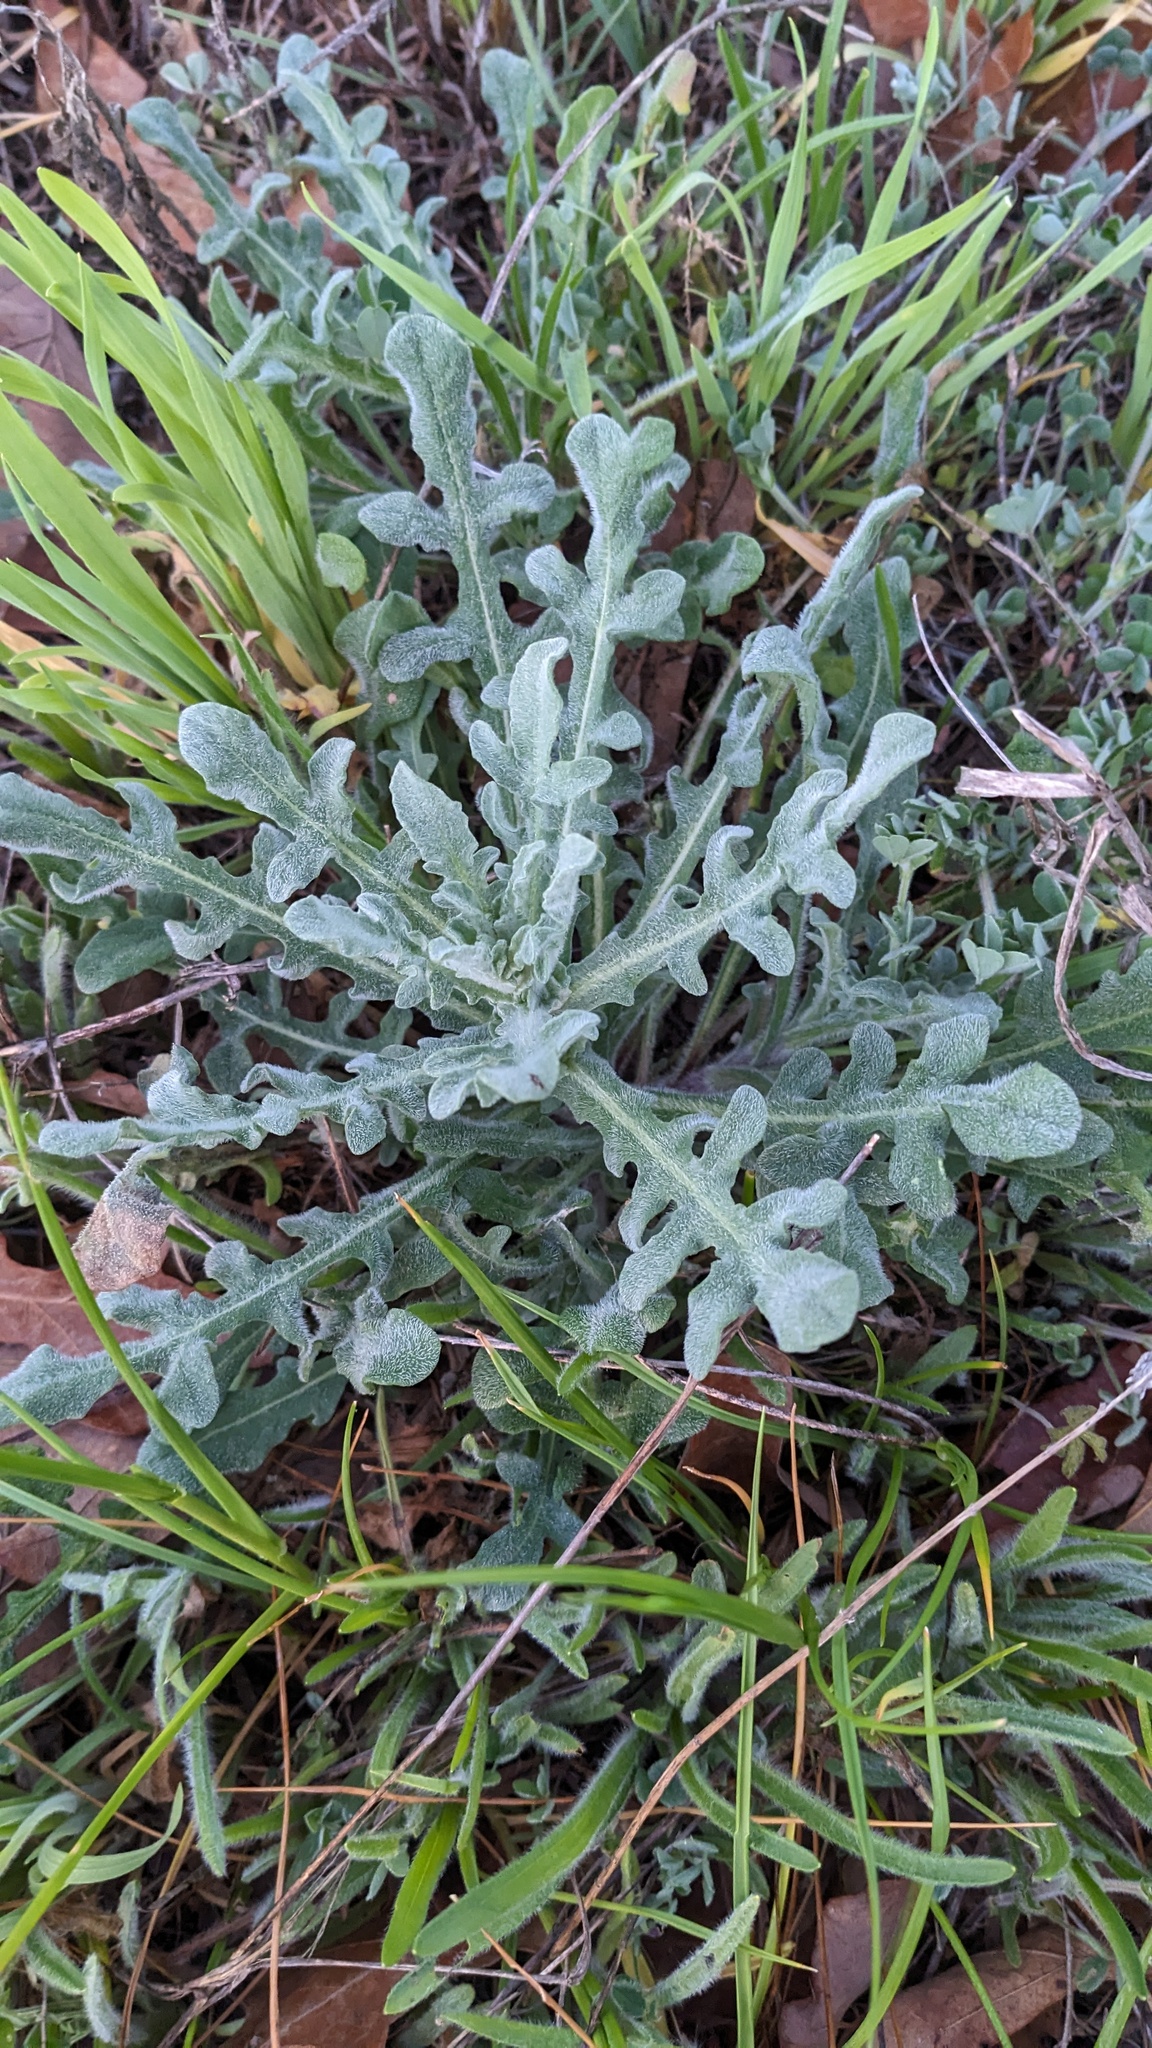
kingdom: Plantae
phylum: Tracheophyta
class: Magnoliopsida
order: Asterales
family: Asteraceae
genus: Centaurea
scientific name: Centaurea melitensis
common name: Maltese star-thistle
